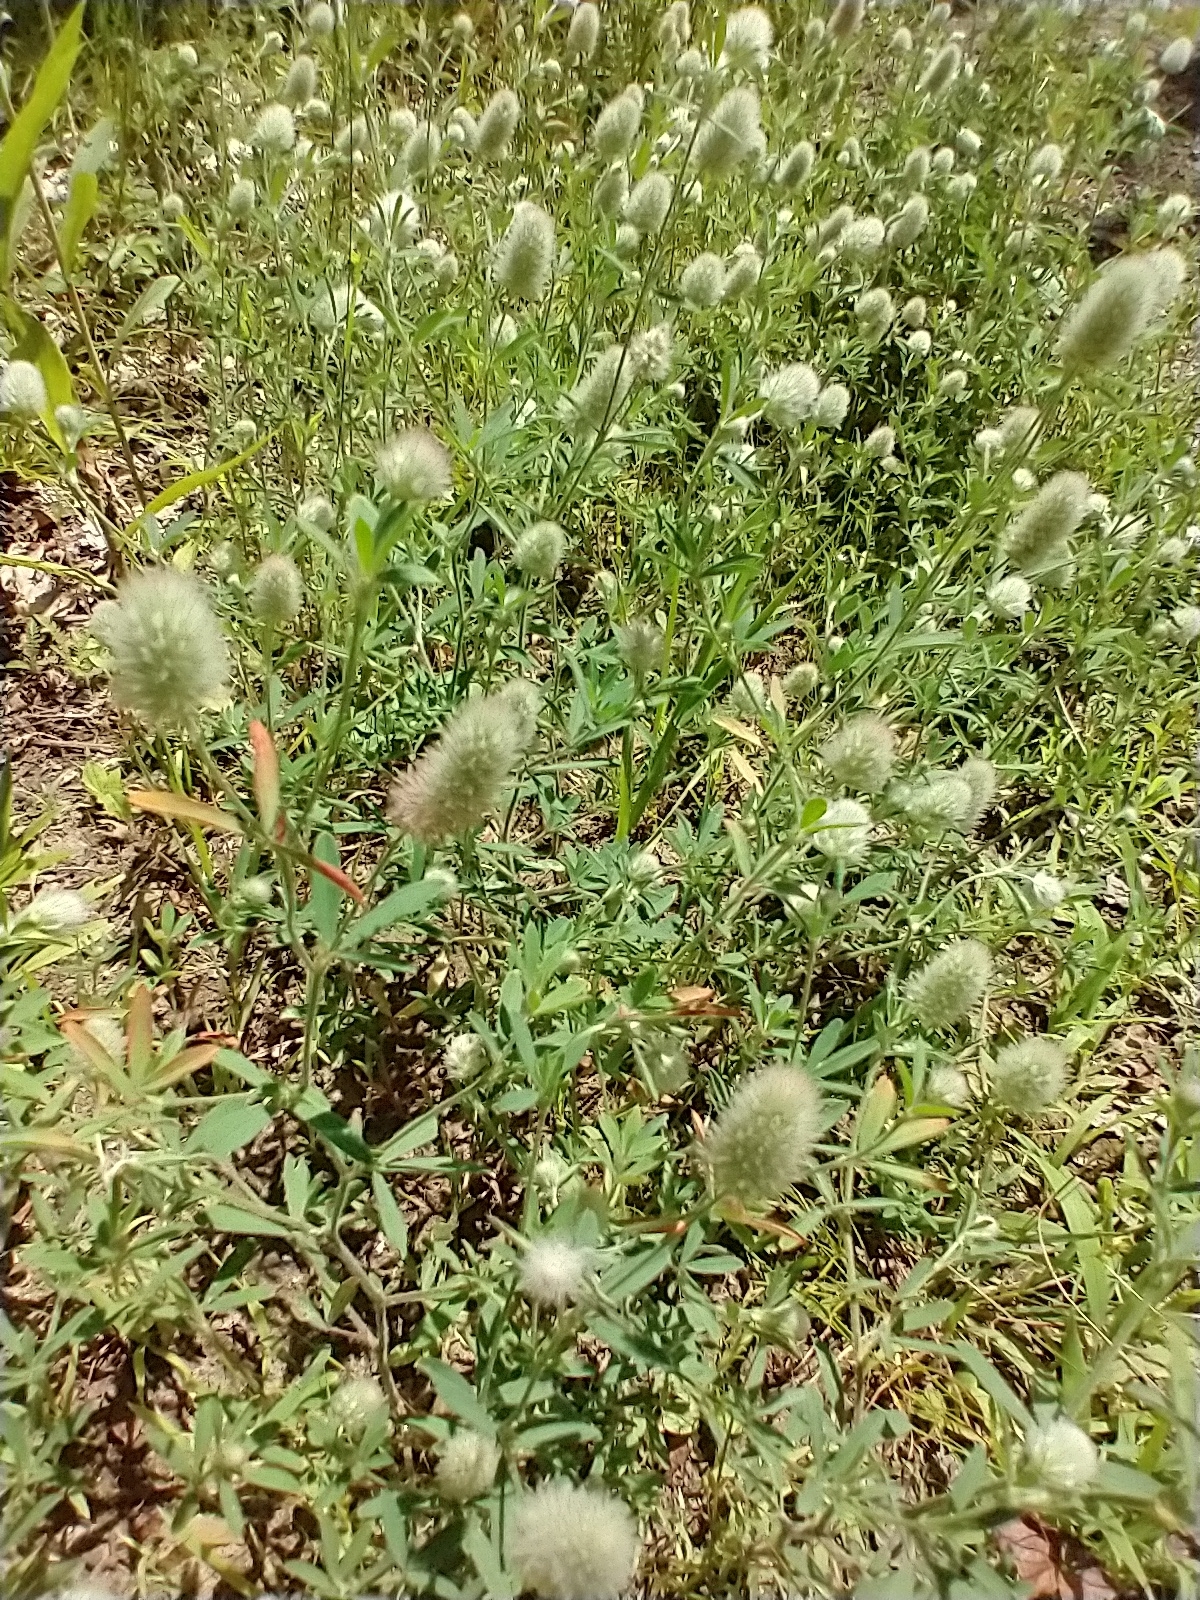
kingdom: Plantae
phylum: Tracheophyta
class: Magnoliopsida
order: Fabales
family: Fabaceae
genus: Trifolium
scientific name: Trifolium arvense
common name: Hare's-foot clover
